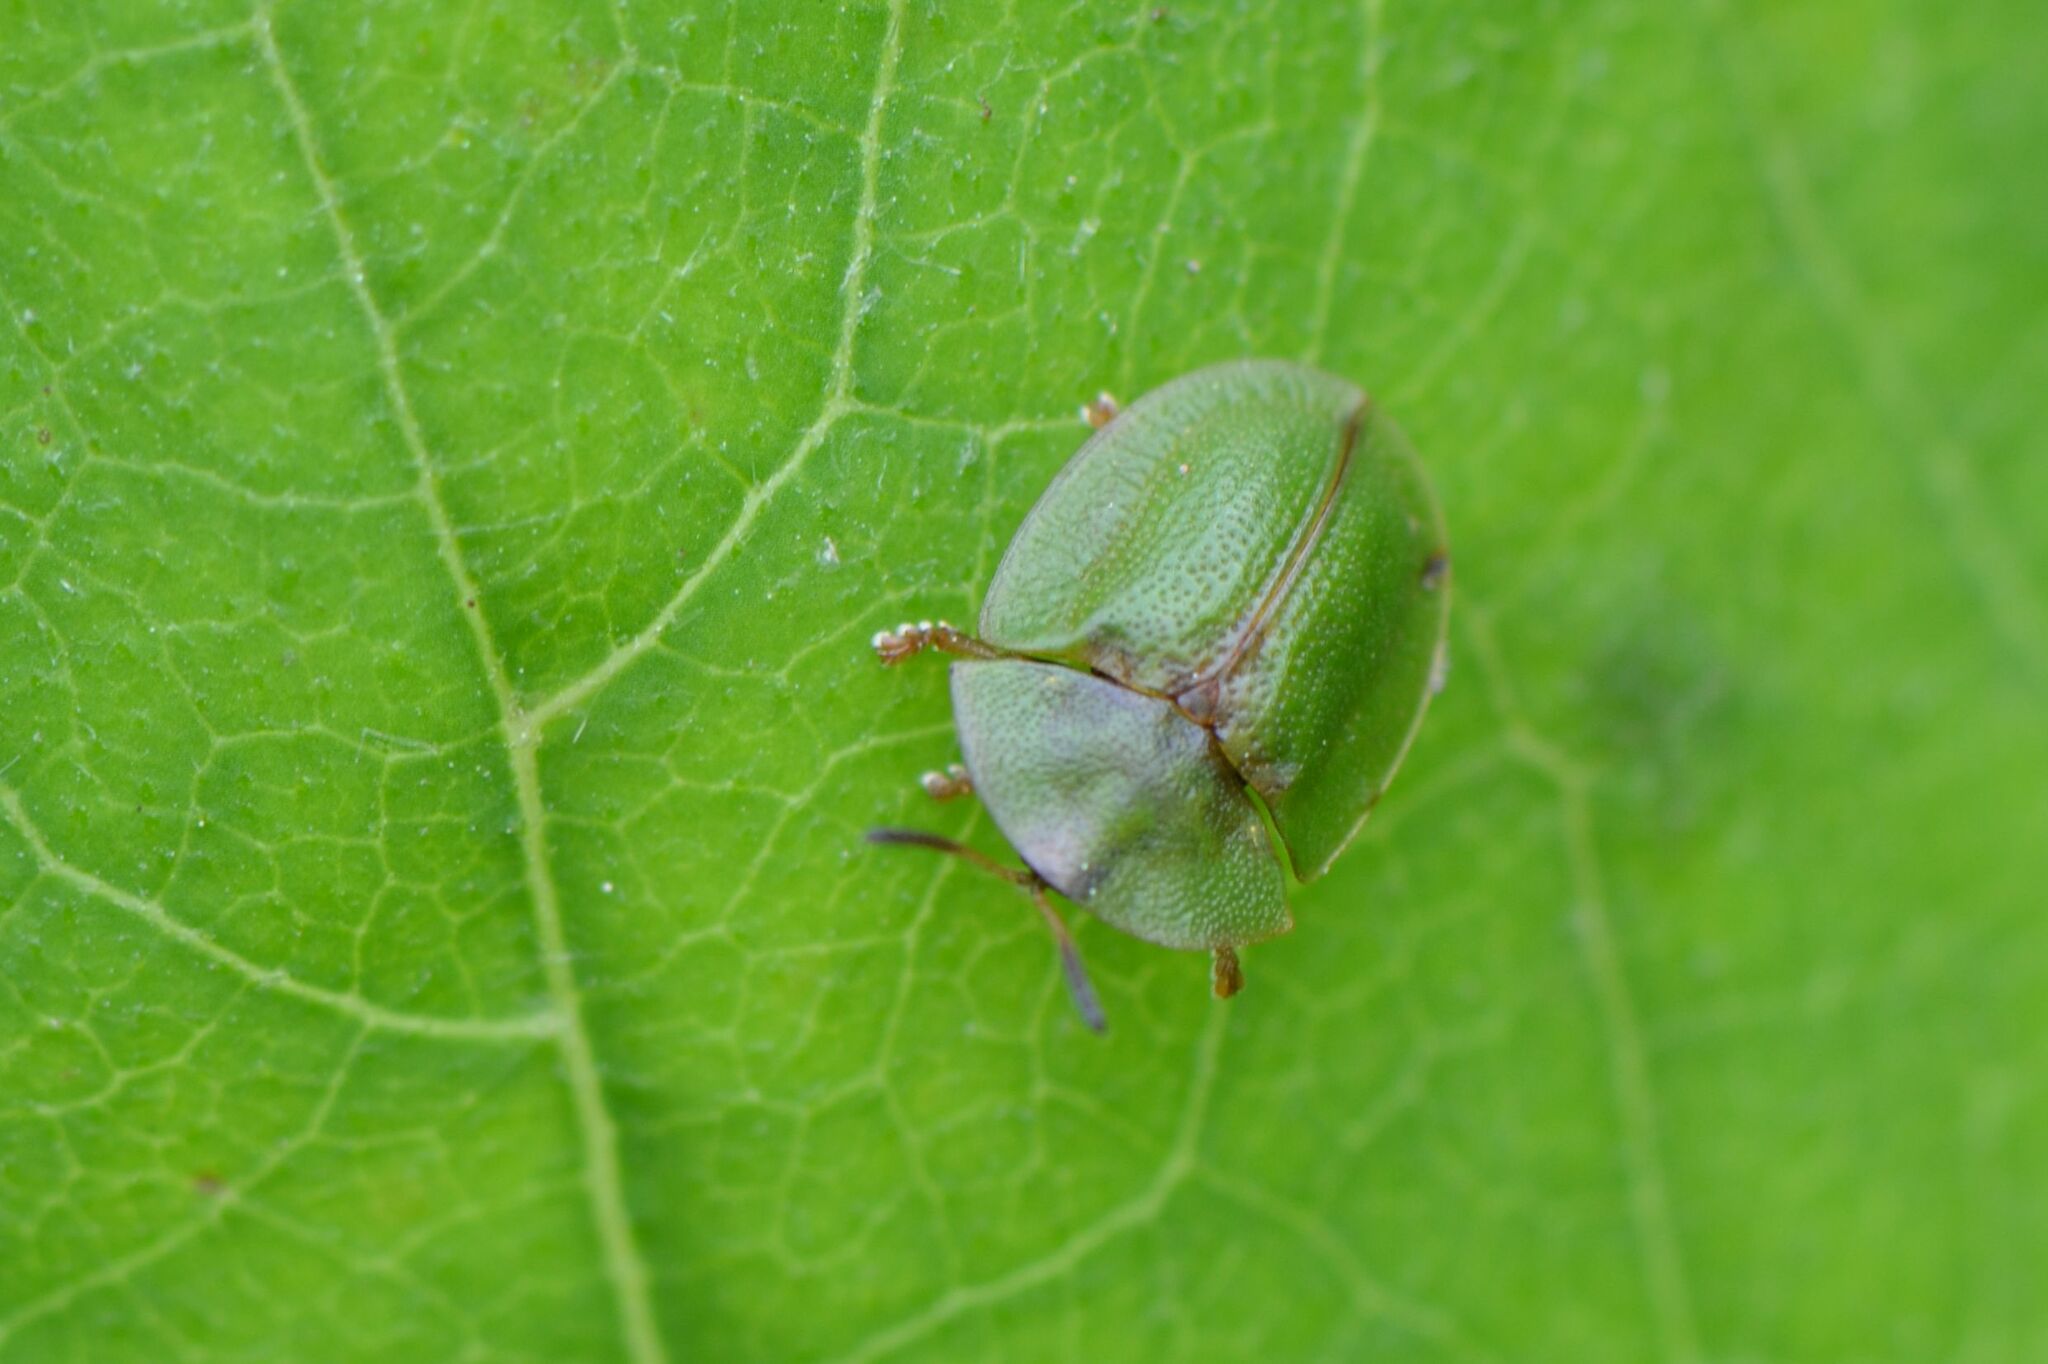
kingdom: Animalia
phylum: Arthropoda
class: Insecta
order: Coleoptera
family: Chrysomelidae
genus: Cassida
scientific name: Cassida rubiginosa
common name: Thistle tortoise beetle
